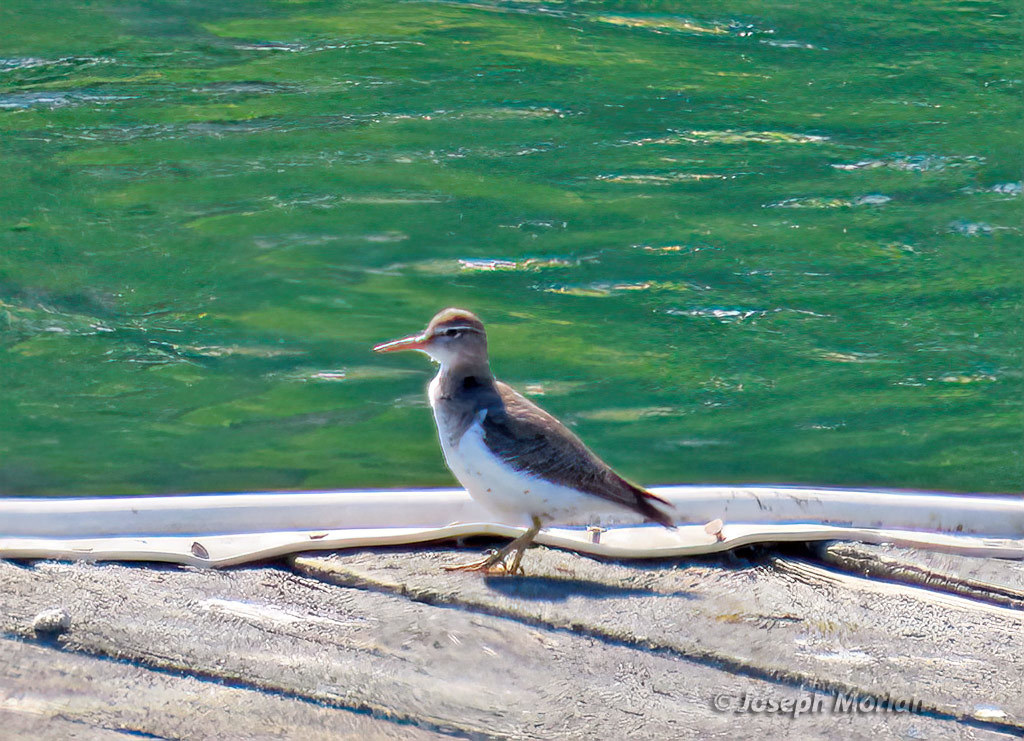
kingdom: Animalia
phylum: Chordata
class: Aves
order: Charadriiformes
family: Scolopacidae
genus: Actitis
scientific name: Actitis macularius
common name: Spotted sandpiper
